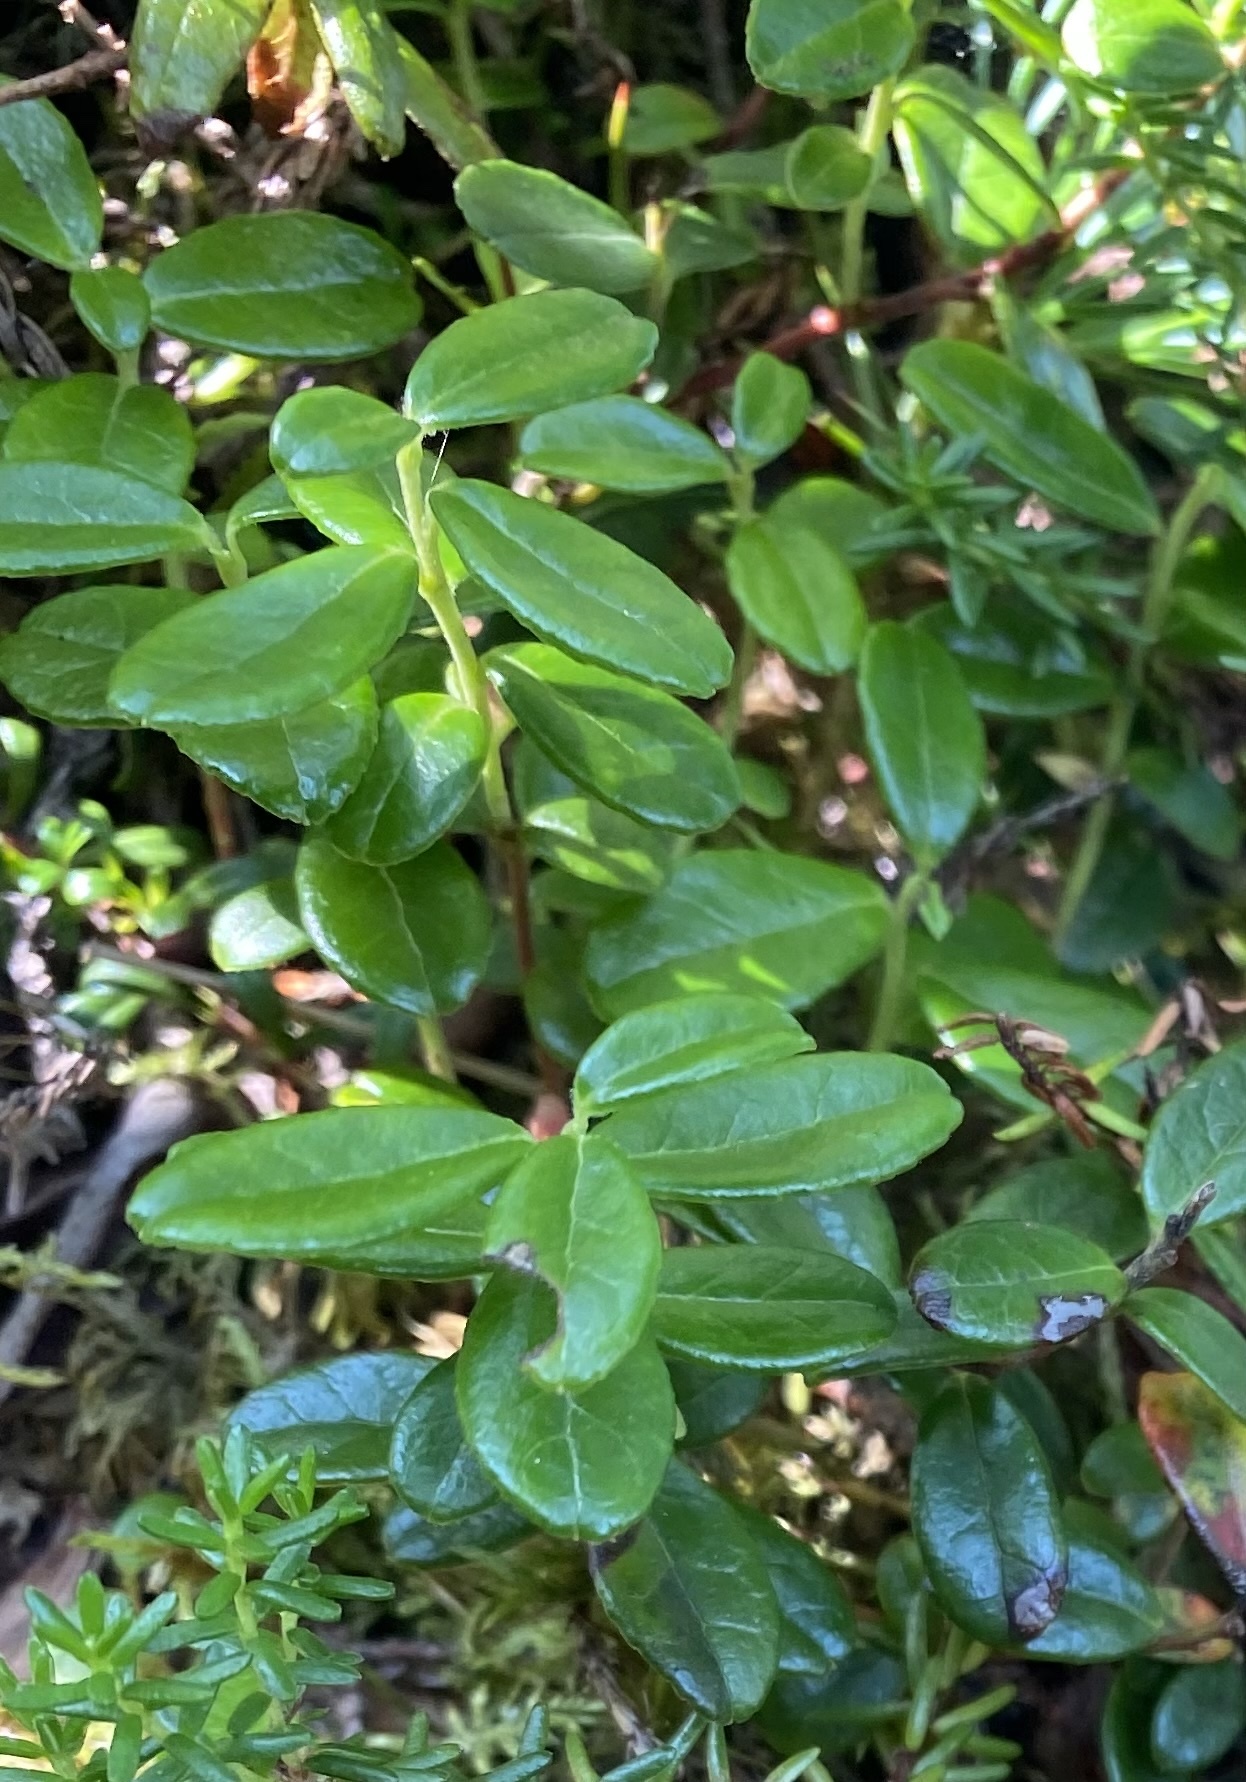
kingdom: Plantae
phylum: Tracheophyta
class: Magnoliopsida
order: Ericales
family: Ericaceae
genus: Vaccinium
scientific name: Vaccinium vitis-idaea
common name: Cowberry
